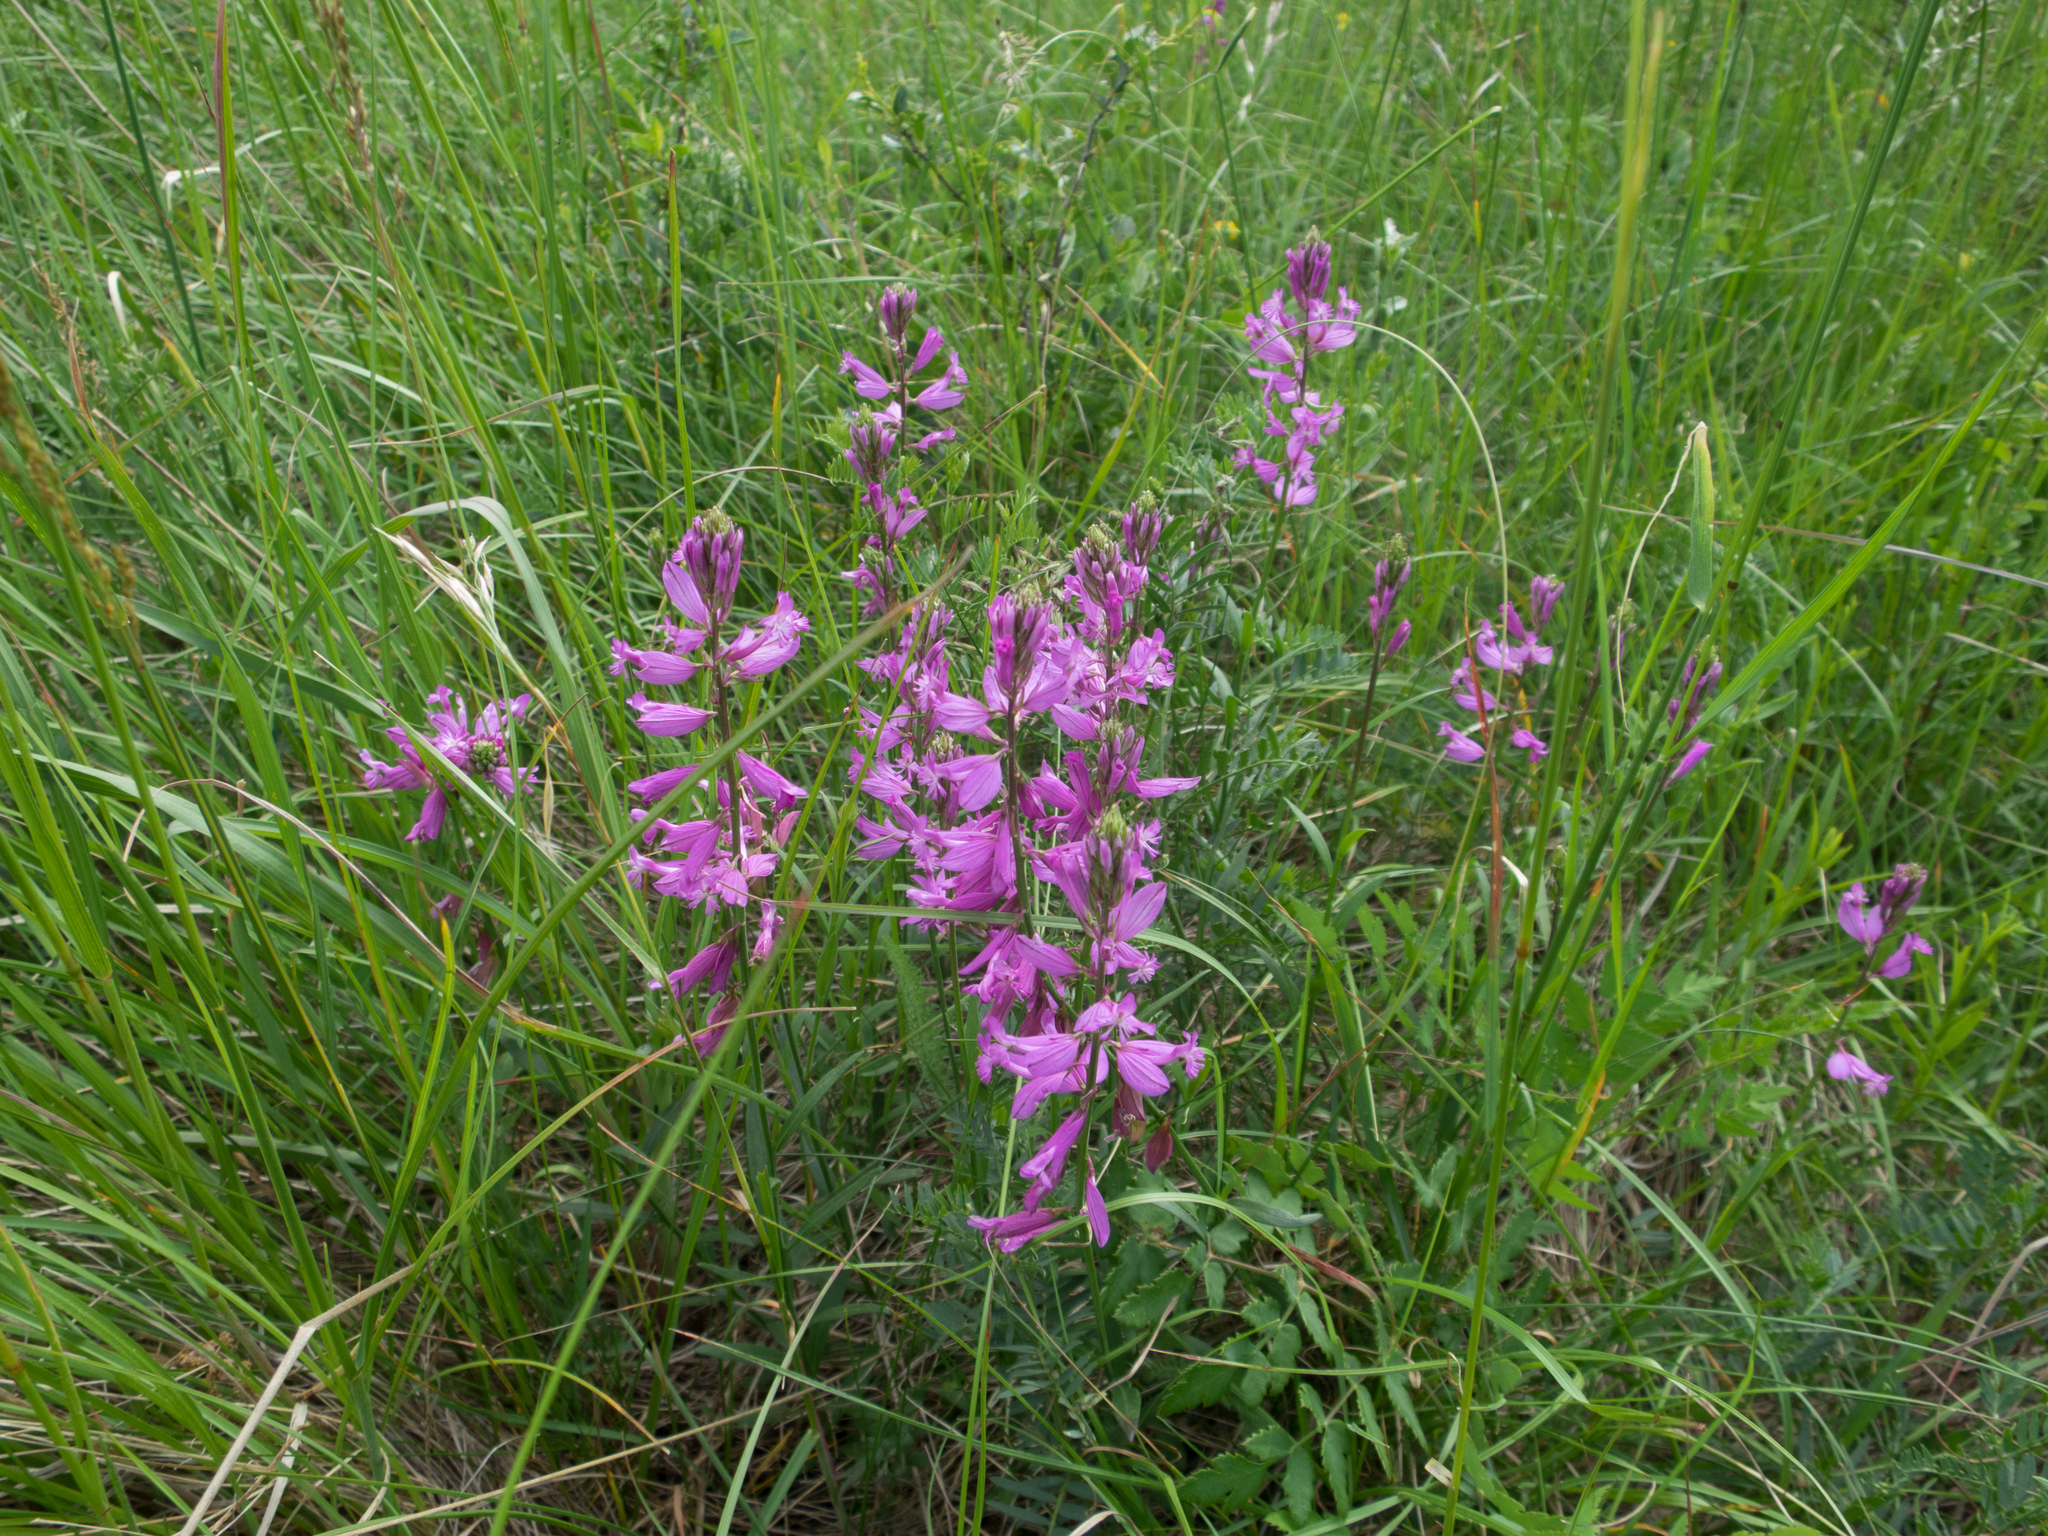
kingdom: Plantae
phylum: Tracheophyta
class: Magnoliopsida
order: Fabales
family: Polygalaceae
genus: Polygala
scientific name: Polygala major
